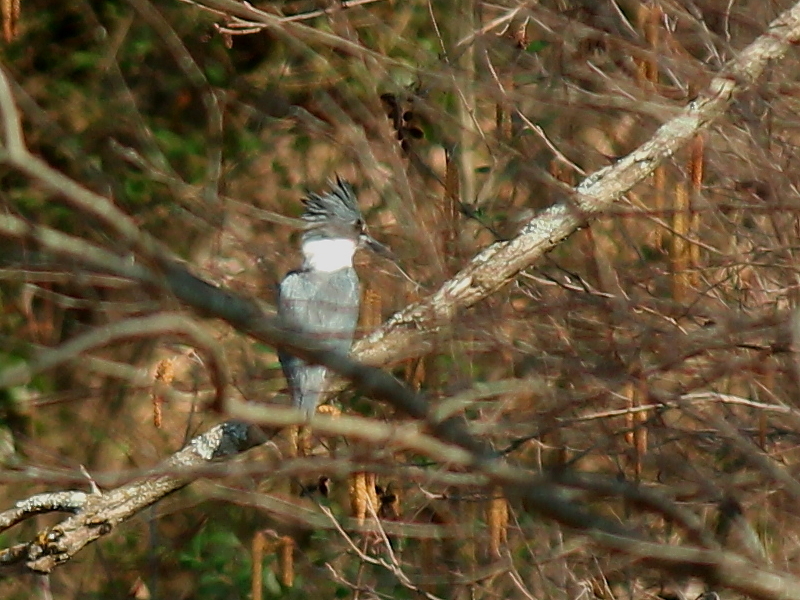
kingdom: Animalia
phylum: Chordata
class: Aves
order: Coraciiformes
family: Alcedinidae
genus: Megaceryle
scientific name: Megaceryle alcyon
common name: Belted kingfisher
